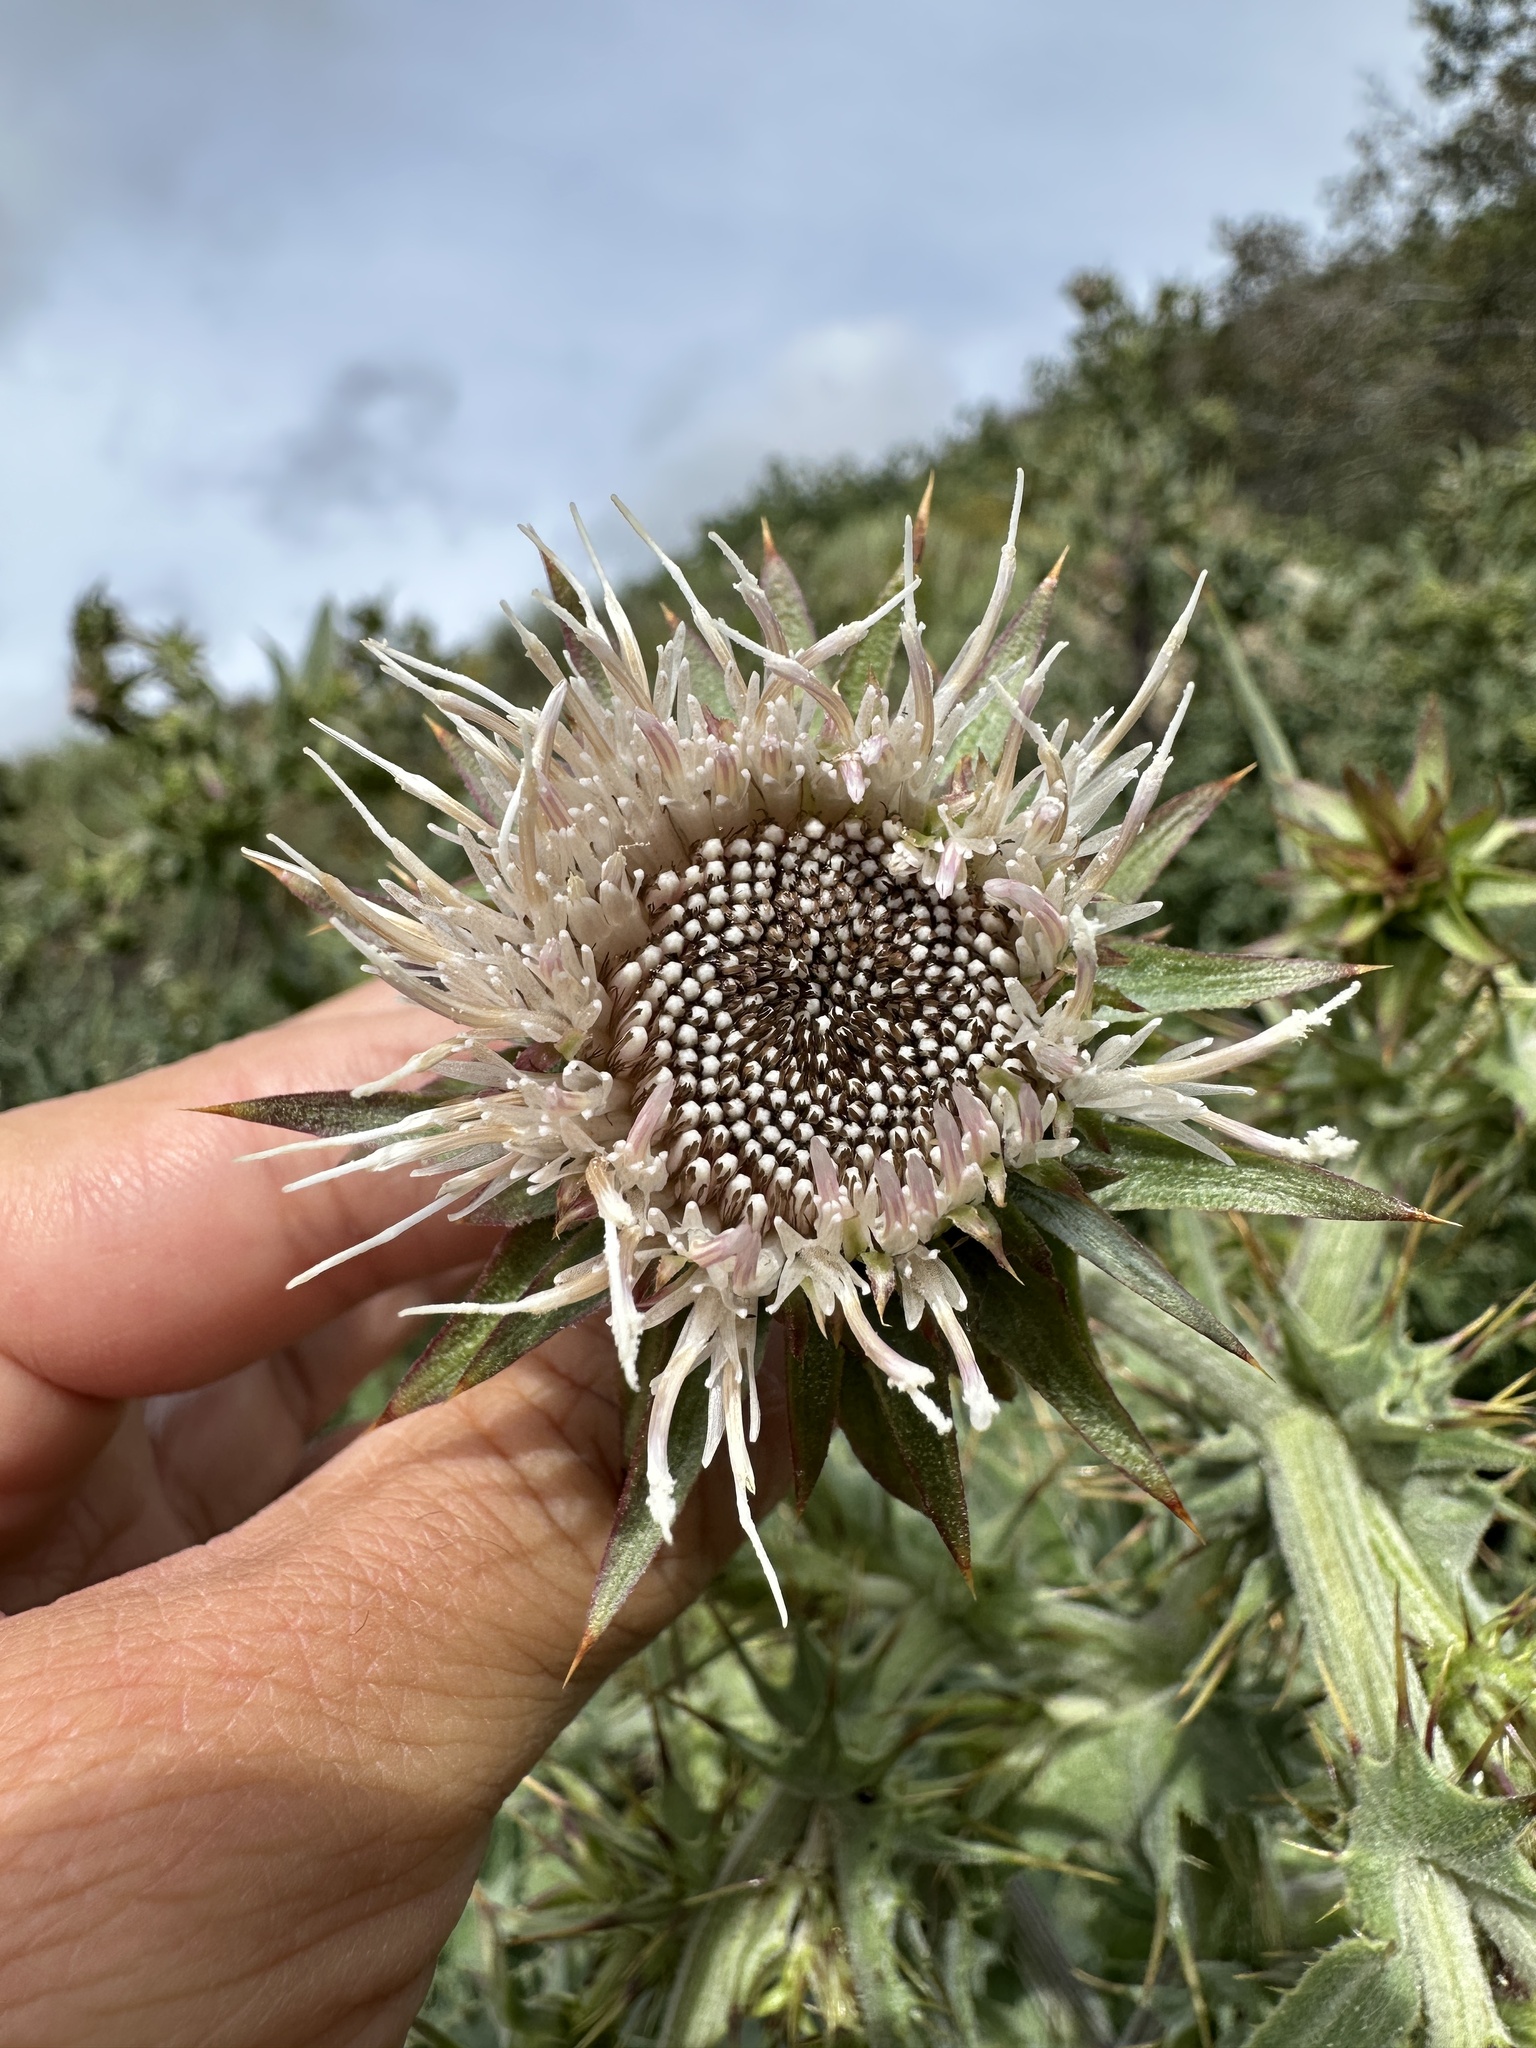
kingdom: Plantae
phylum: Tracheophyta
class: Magnoliopsida
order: Asterales
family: Asteraceae
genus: Cirsium
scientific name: Cirsium fontinale
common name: Fountain thistle
